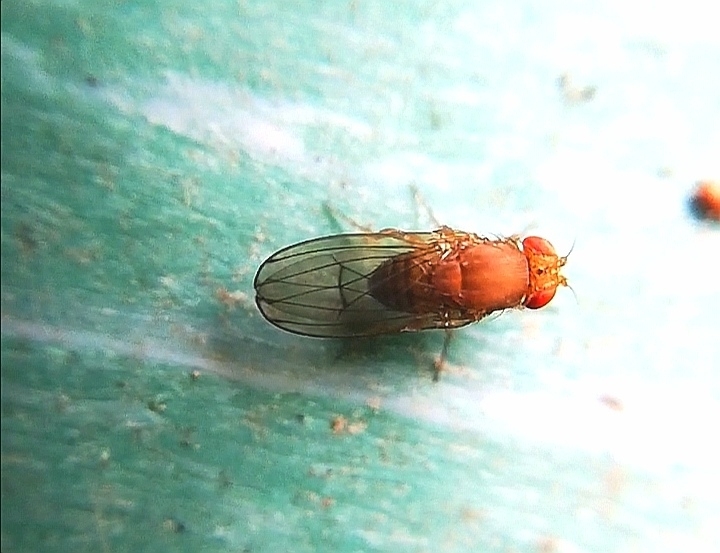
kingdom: Animalia
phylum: Arthropoda
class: Insecta
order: Diptera
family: Drosophilidae
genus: Drosophila
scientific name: Drosophila immigrans
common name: Pomace fly
